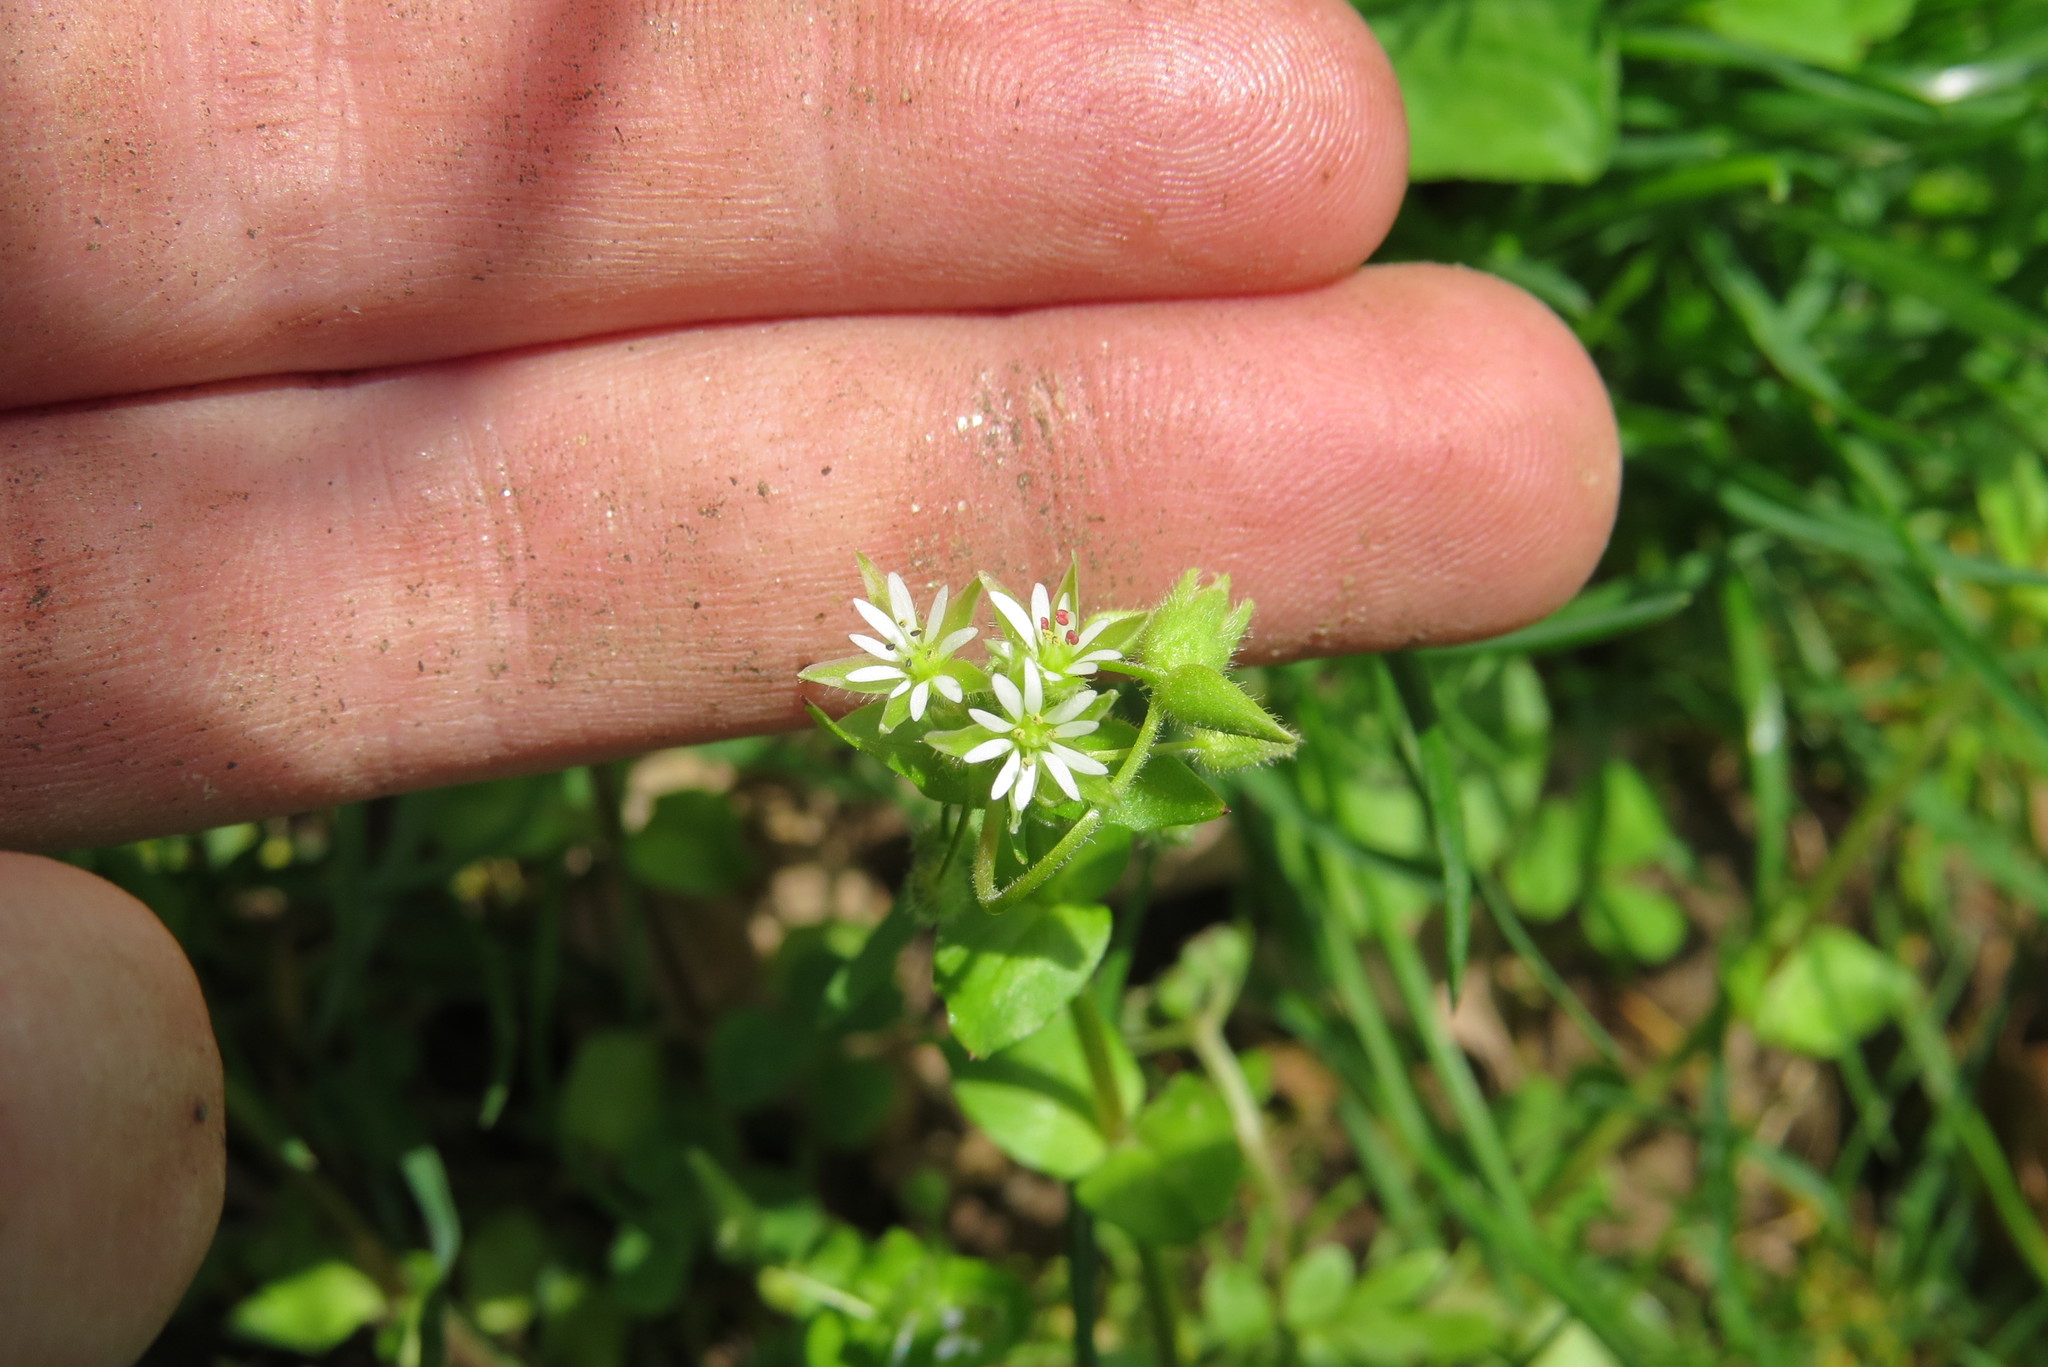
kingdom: Plantae
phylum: Tracheophyta
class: Magnoliopsida
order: Caryophyllales
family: Caryophyllaceae
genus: Stellaria
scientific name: Stellaria media
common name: Common chickweed
